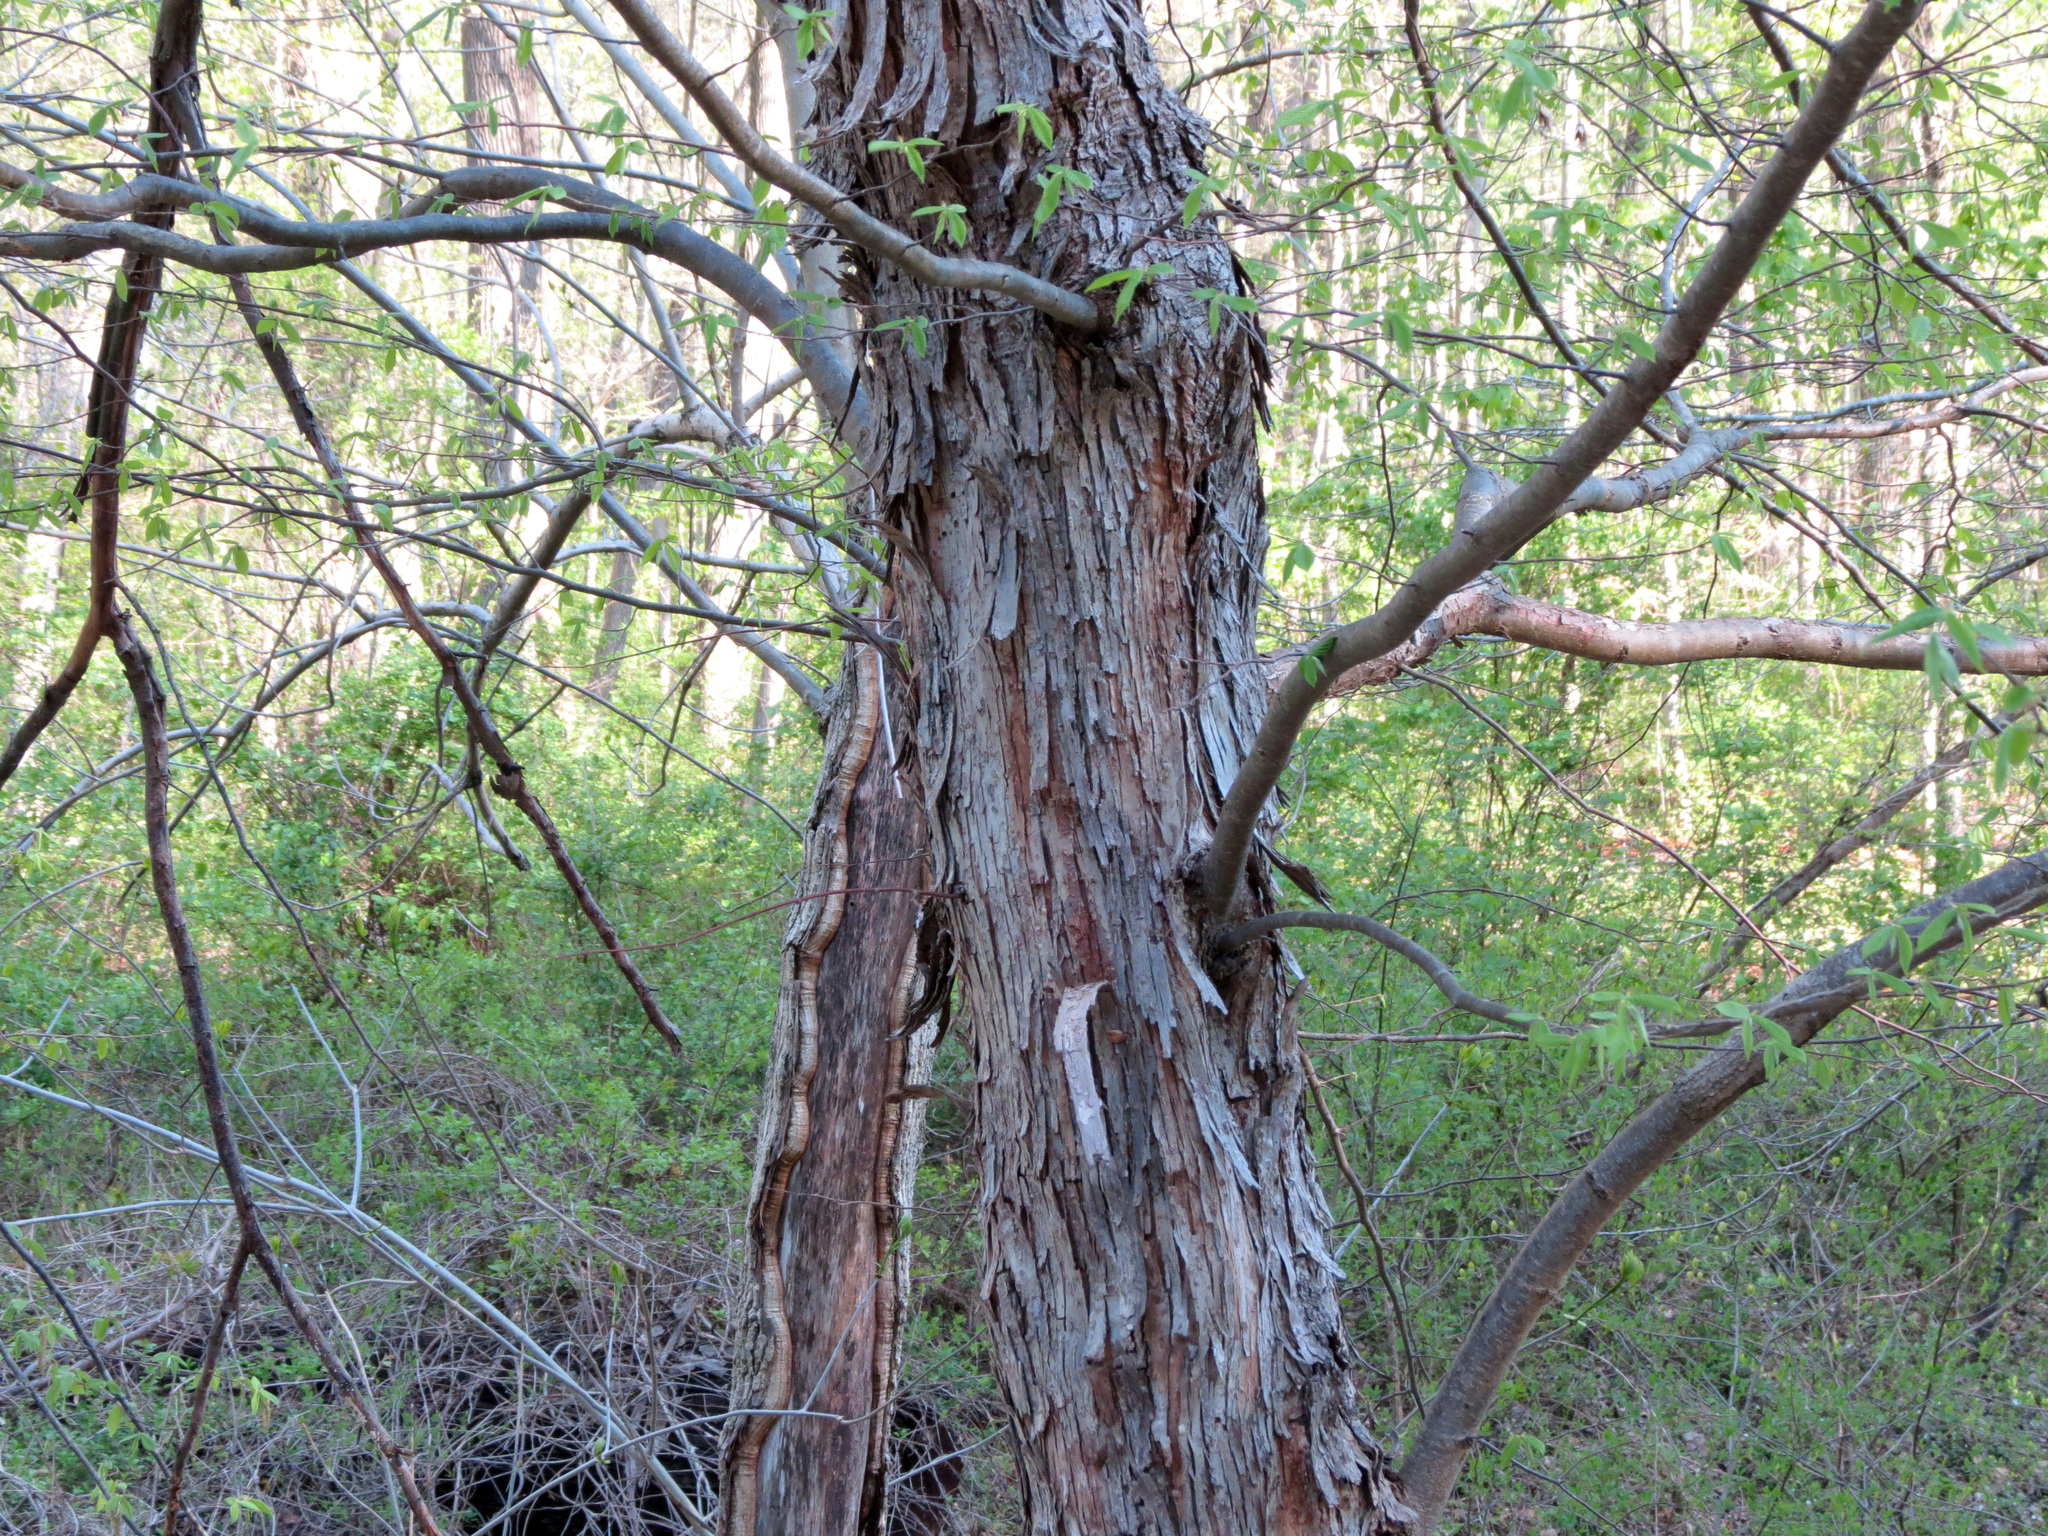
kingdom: Plantae
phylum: Tracheophyta
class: Magnoliopsida
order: Fagales
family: Betulaceae
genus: Ostrya
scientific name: Ostrya virginiana
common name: Ironwood
